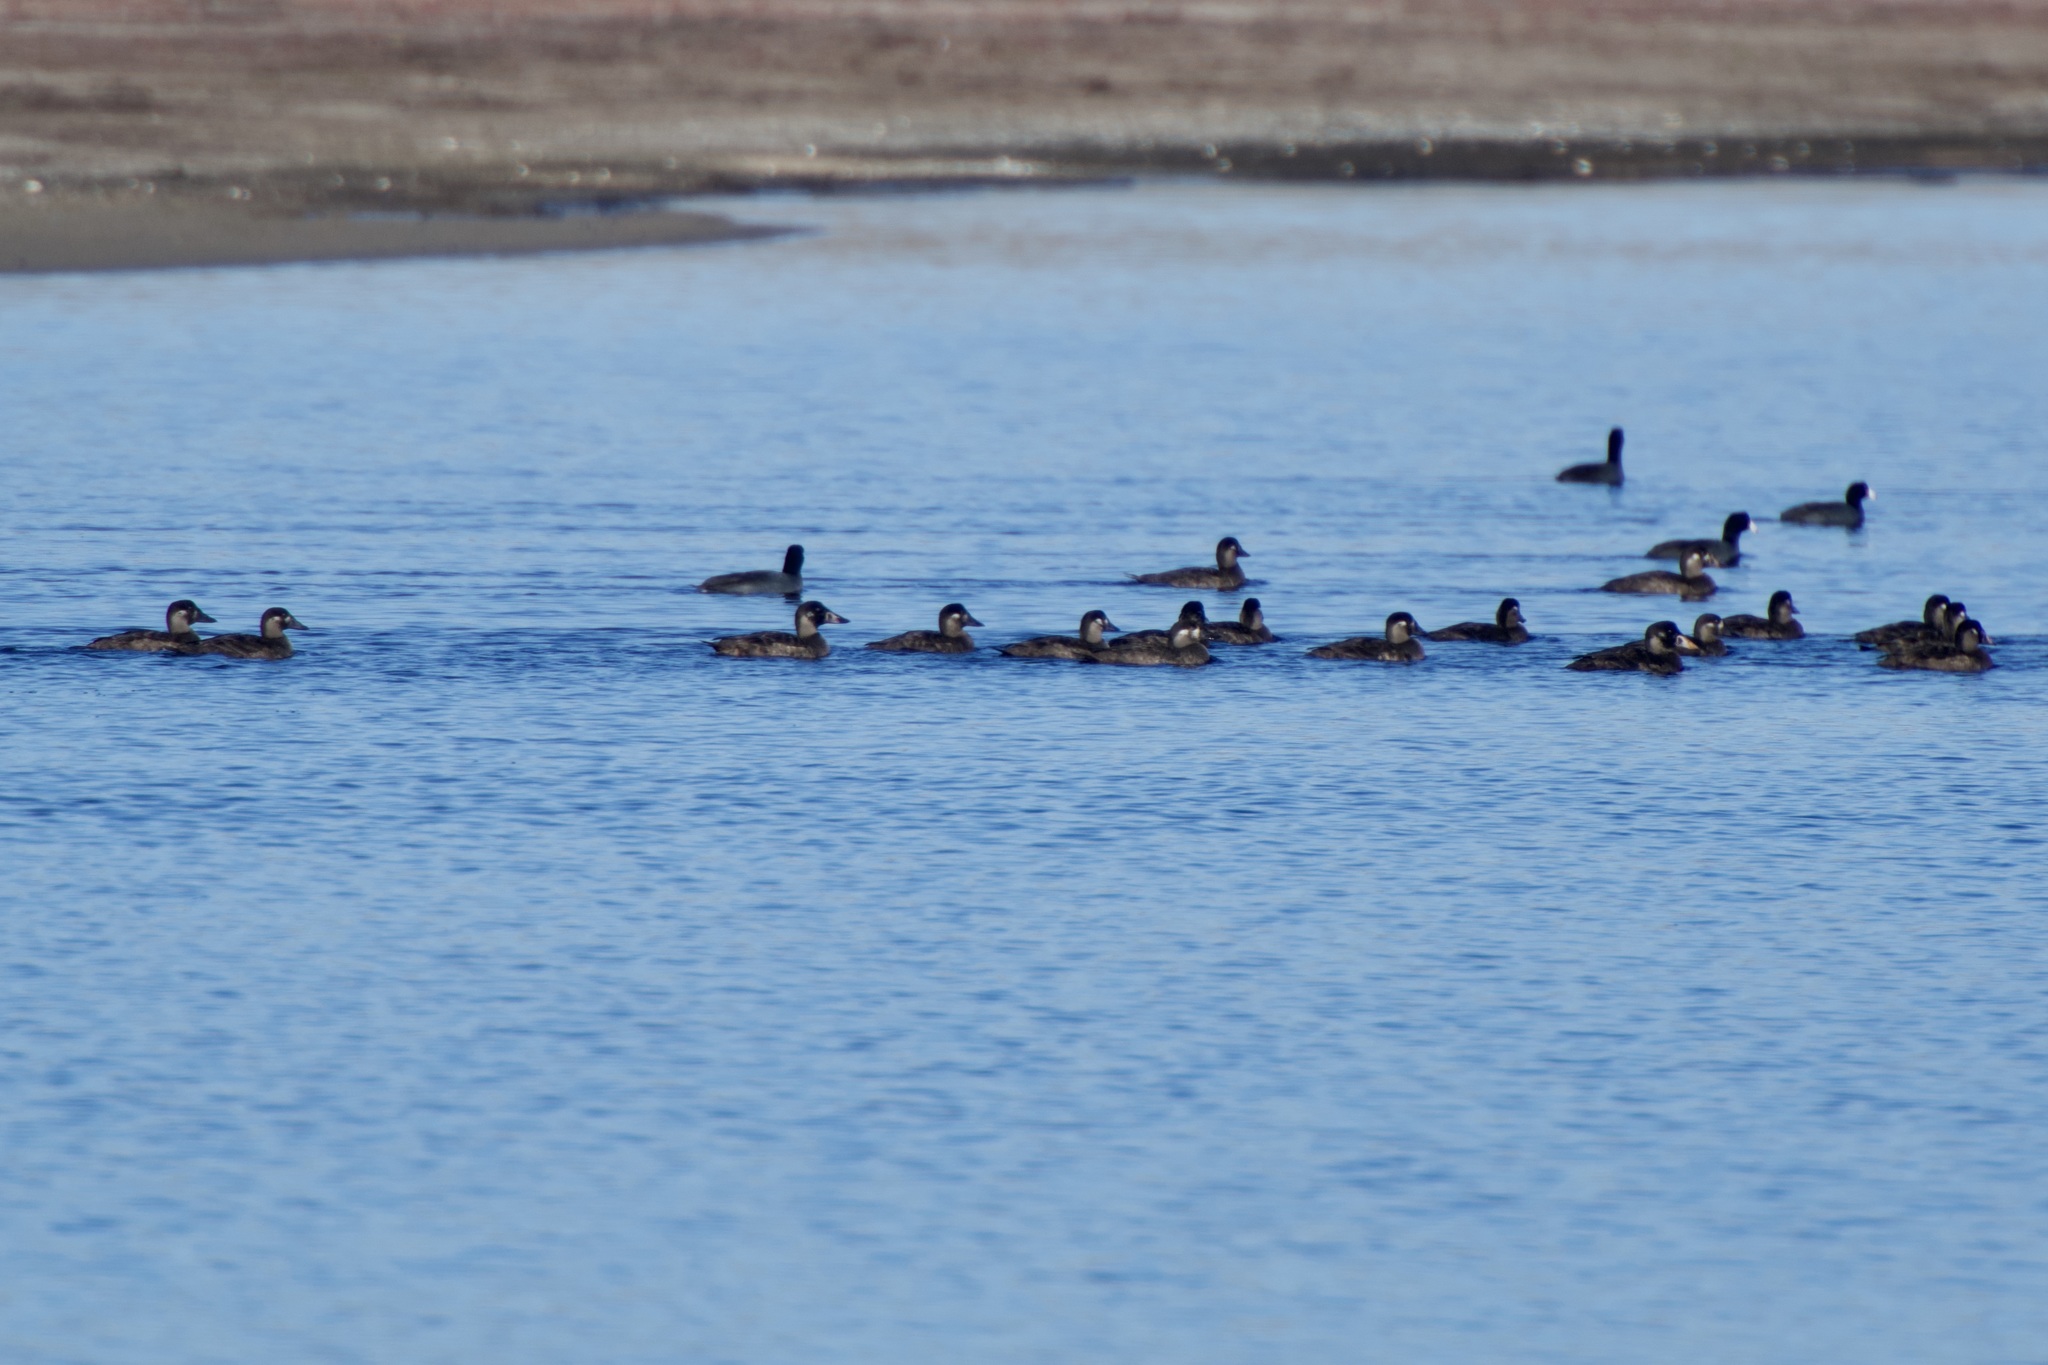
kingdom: Animalia
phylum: Chordata
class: Aves
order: Anseriformes
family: Anatidae
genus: Melanitta
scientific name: Melanitta perspicillata
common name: Surf scoter
